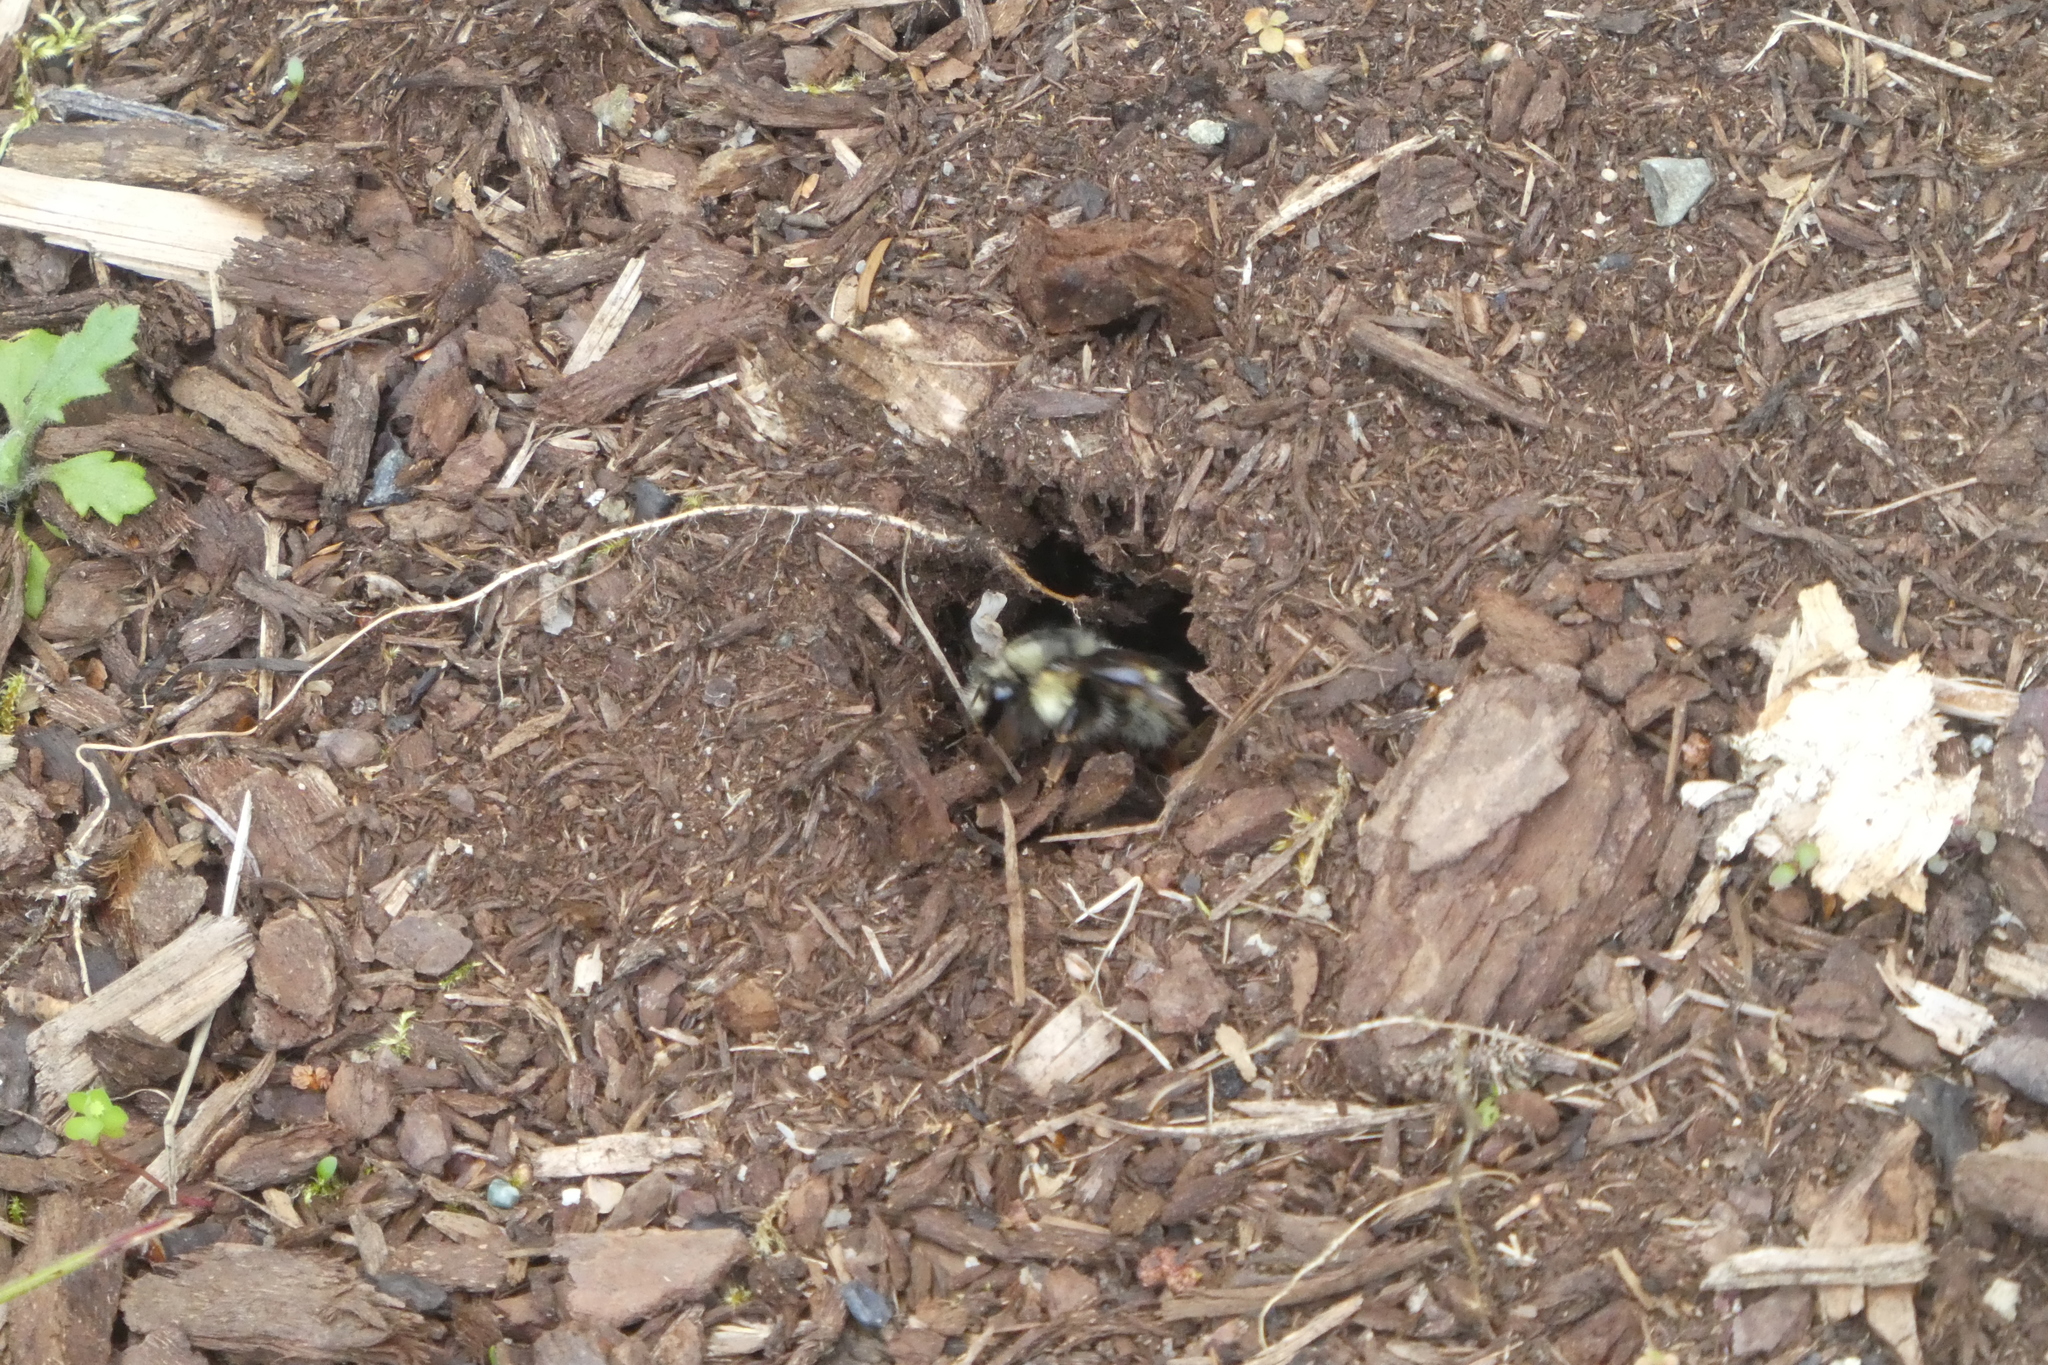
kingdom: Animalia
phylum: Arthropoda
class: Insecta
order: Hymenoptera
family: Apidae
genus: Bombus
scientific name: Bombus flavifrons
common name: Yellow head bumble bee
